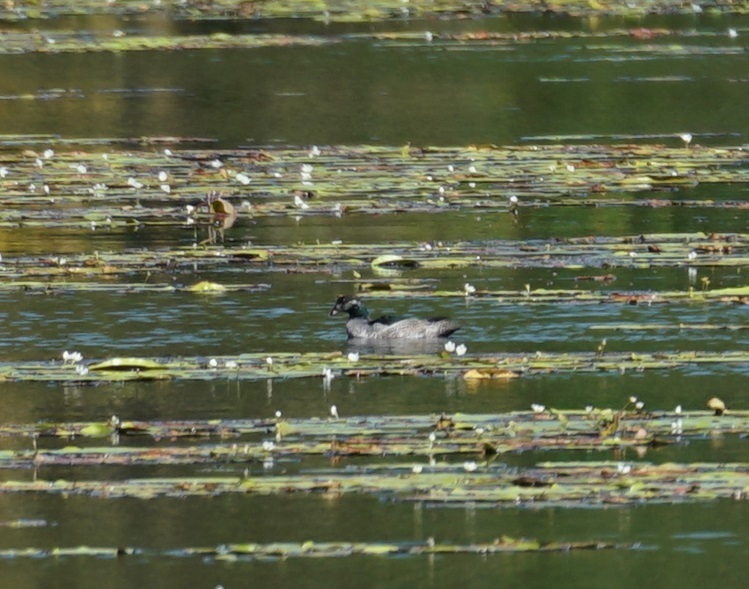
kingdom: Animalia
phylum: Chordata
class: Aves
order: Anseriformes
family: Anatidae
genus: Nettapus
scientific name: Nettapus pulchellus
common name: Green pygmy-goose
